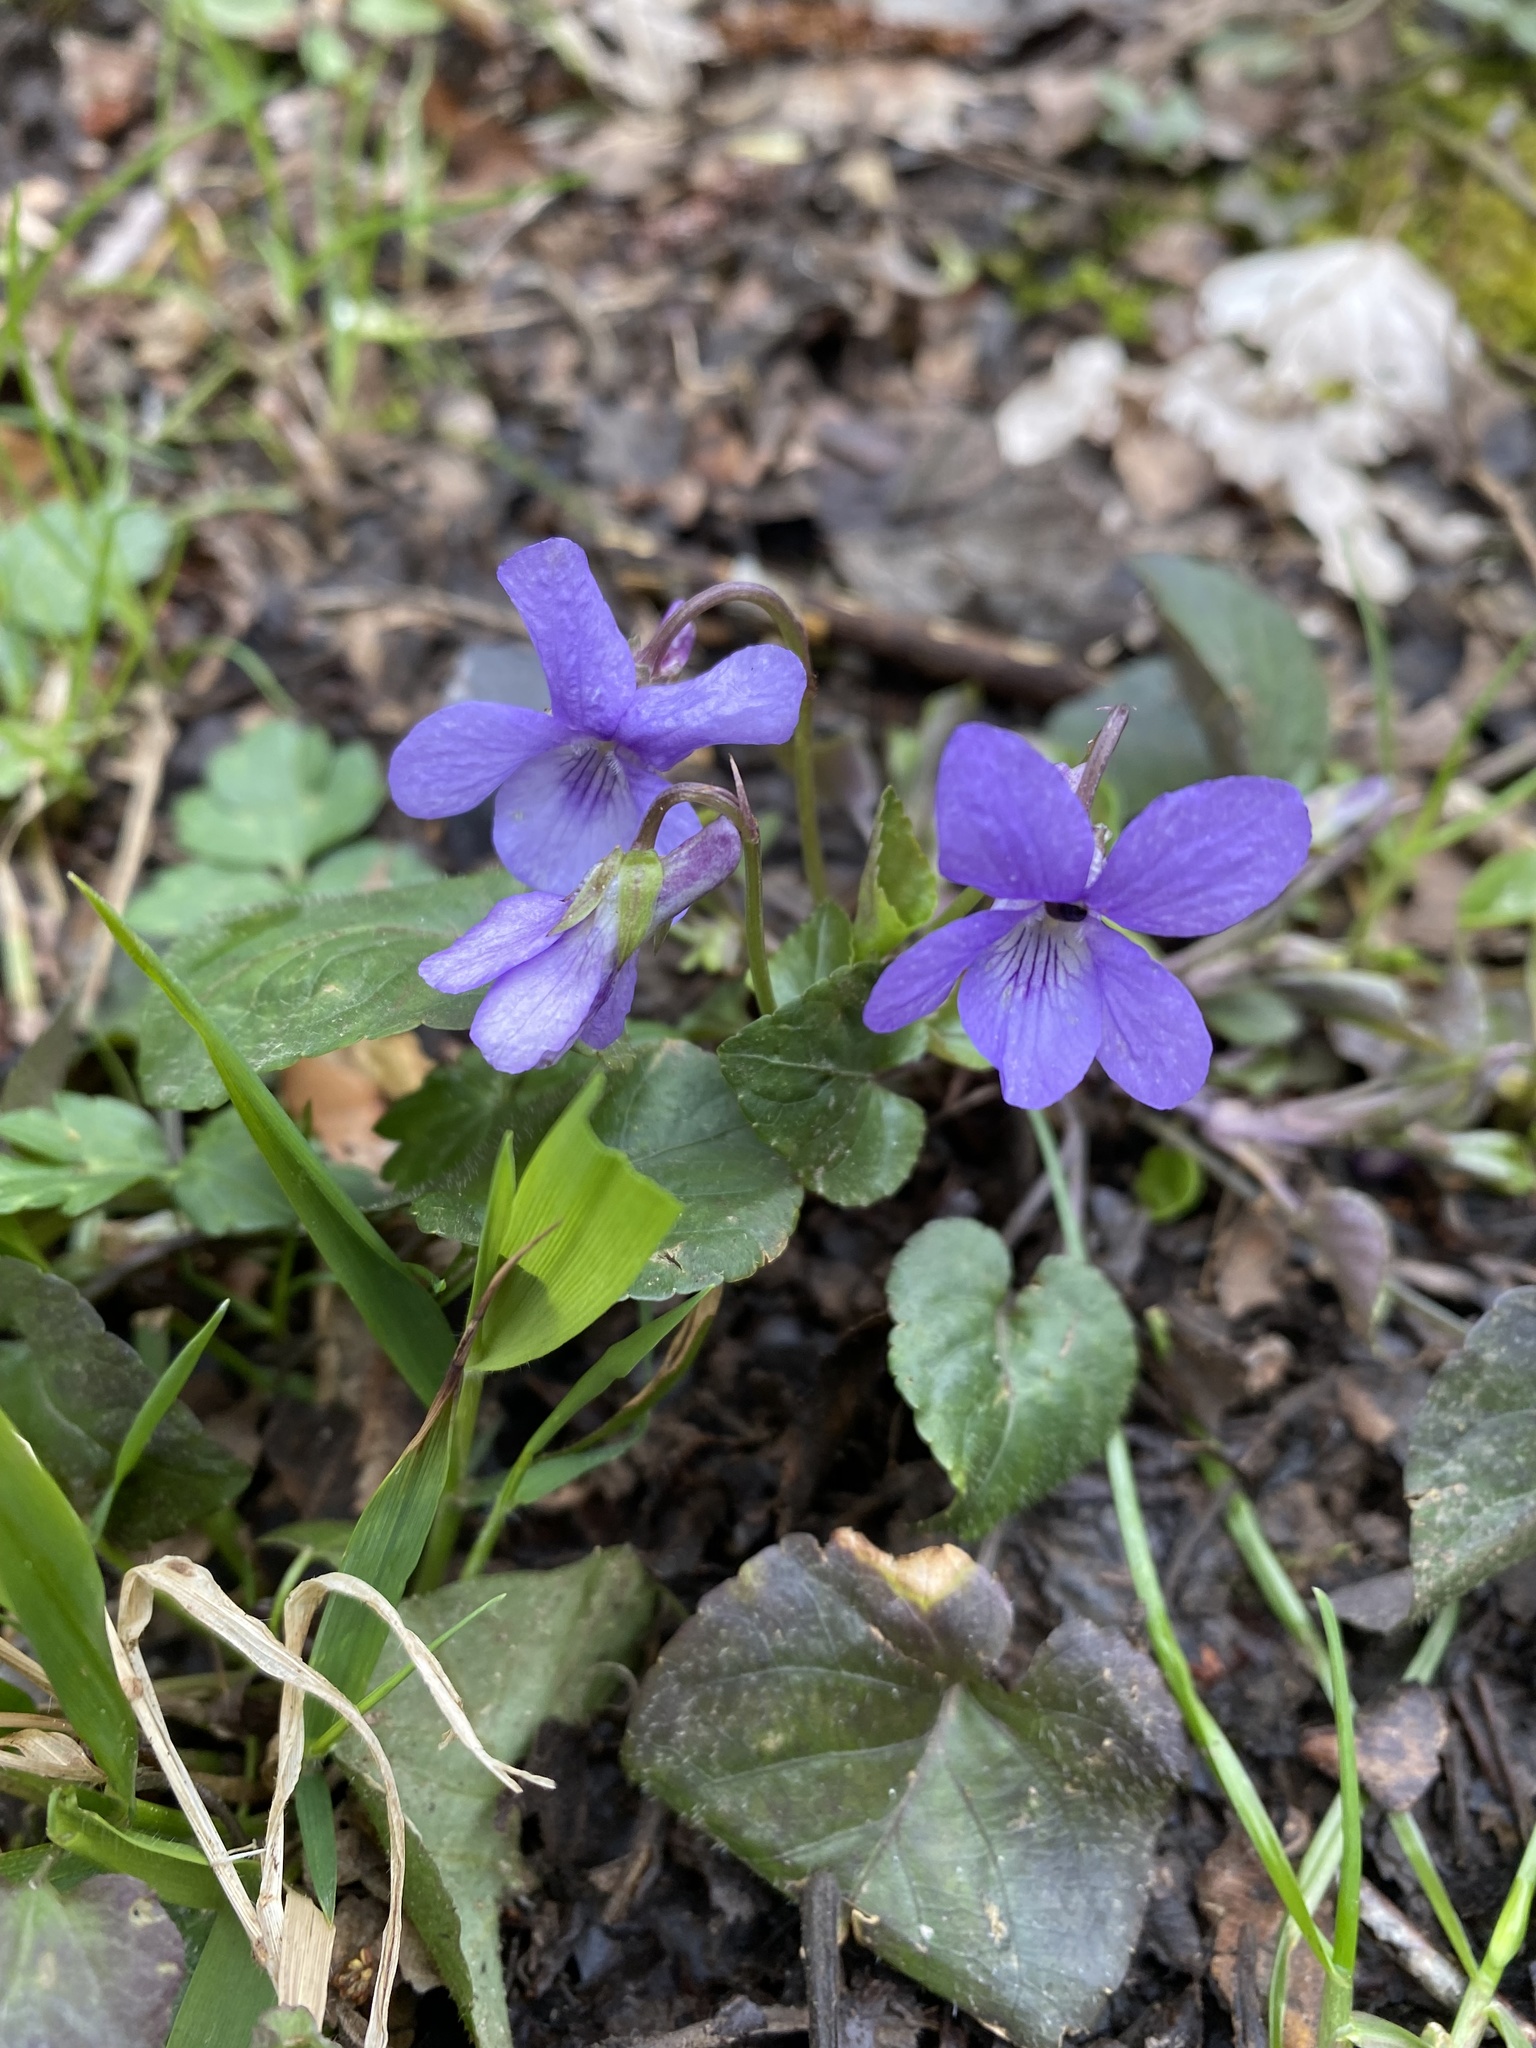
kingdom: Plantae
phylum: Tracheophyta
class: Magnoliopsida
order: Malpighiales
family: Violaceae
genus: Viola
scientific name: Viola reichenbachiana
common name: Early dog-violet
